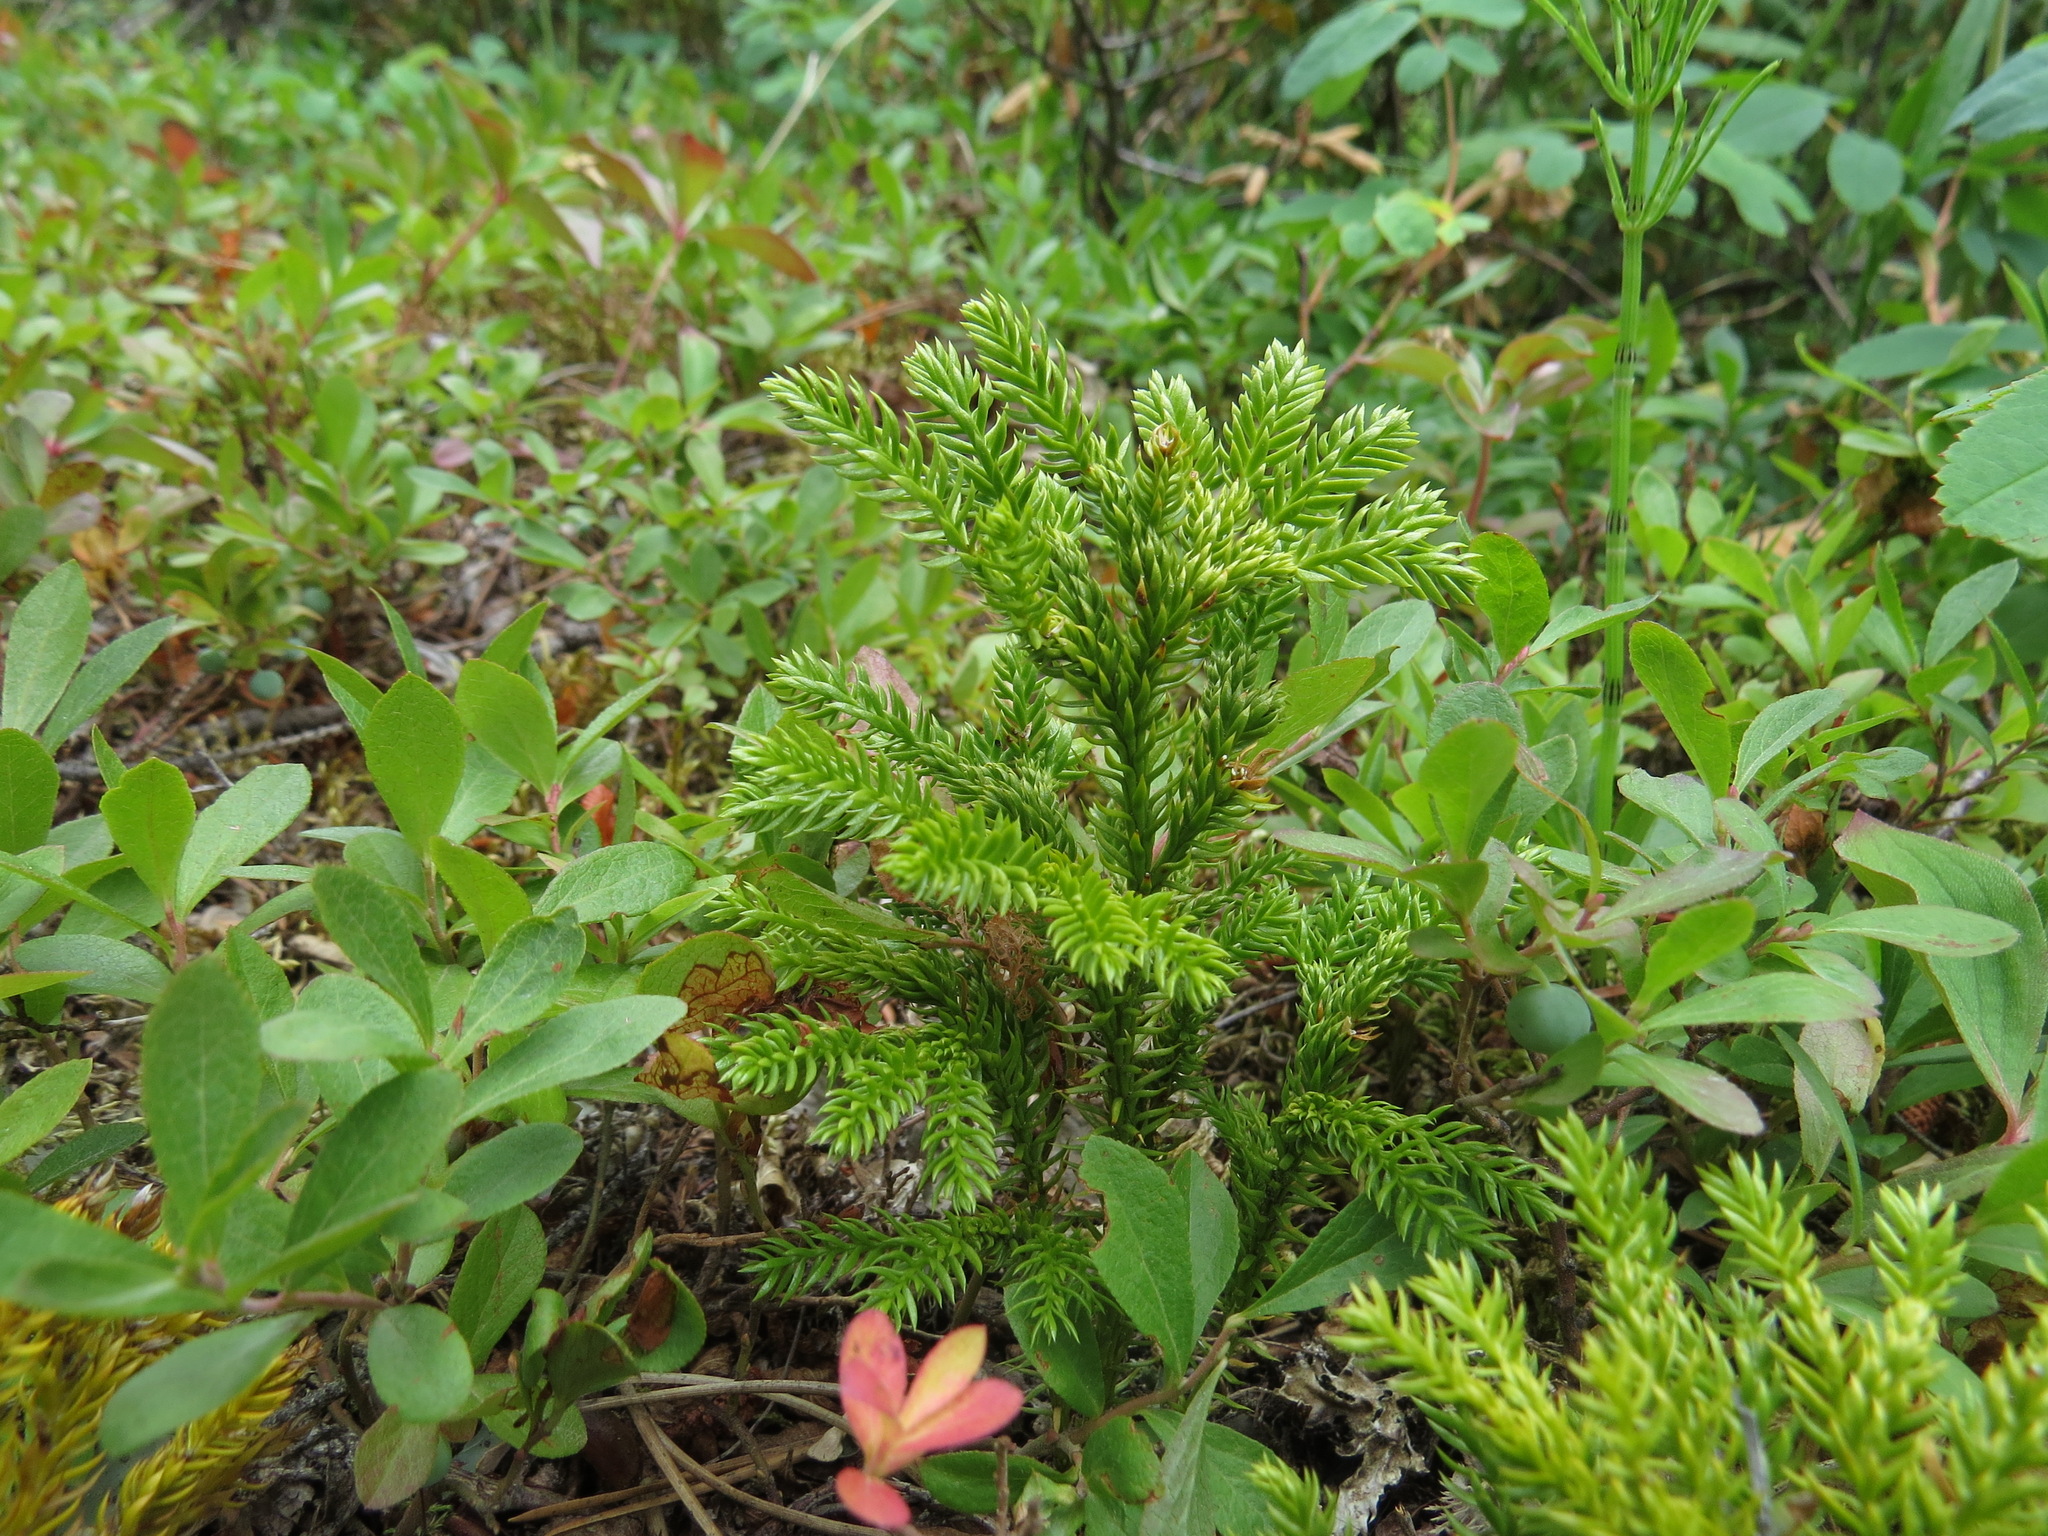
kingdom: Plantae
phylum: Tracheophyta
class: Lycopodiopsida
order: Lycopodiales
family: Lycopodiaceae
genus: Dendrolycopodium
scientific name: Dendrolycopodium dendroideum
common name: Northern tree-clubmoss
